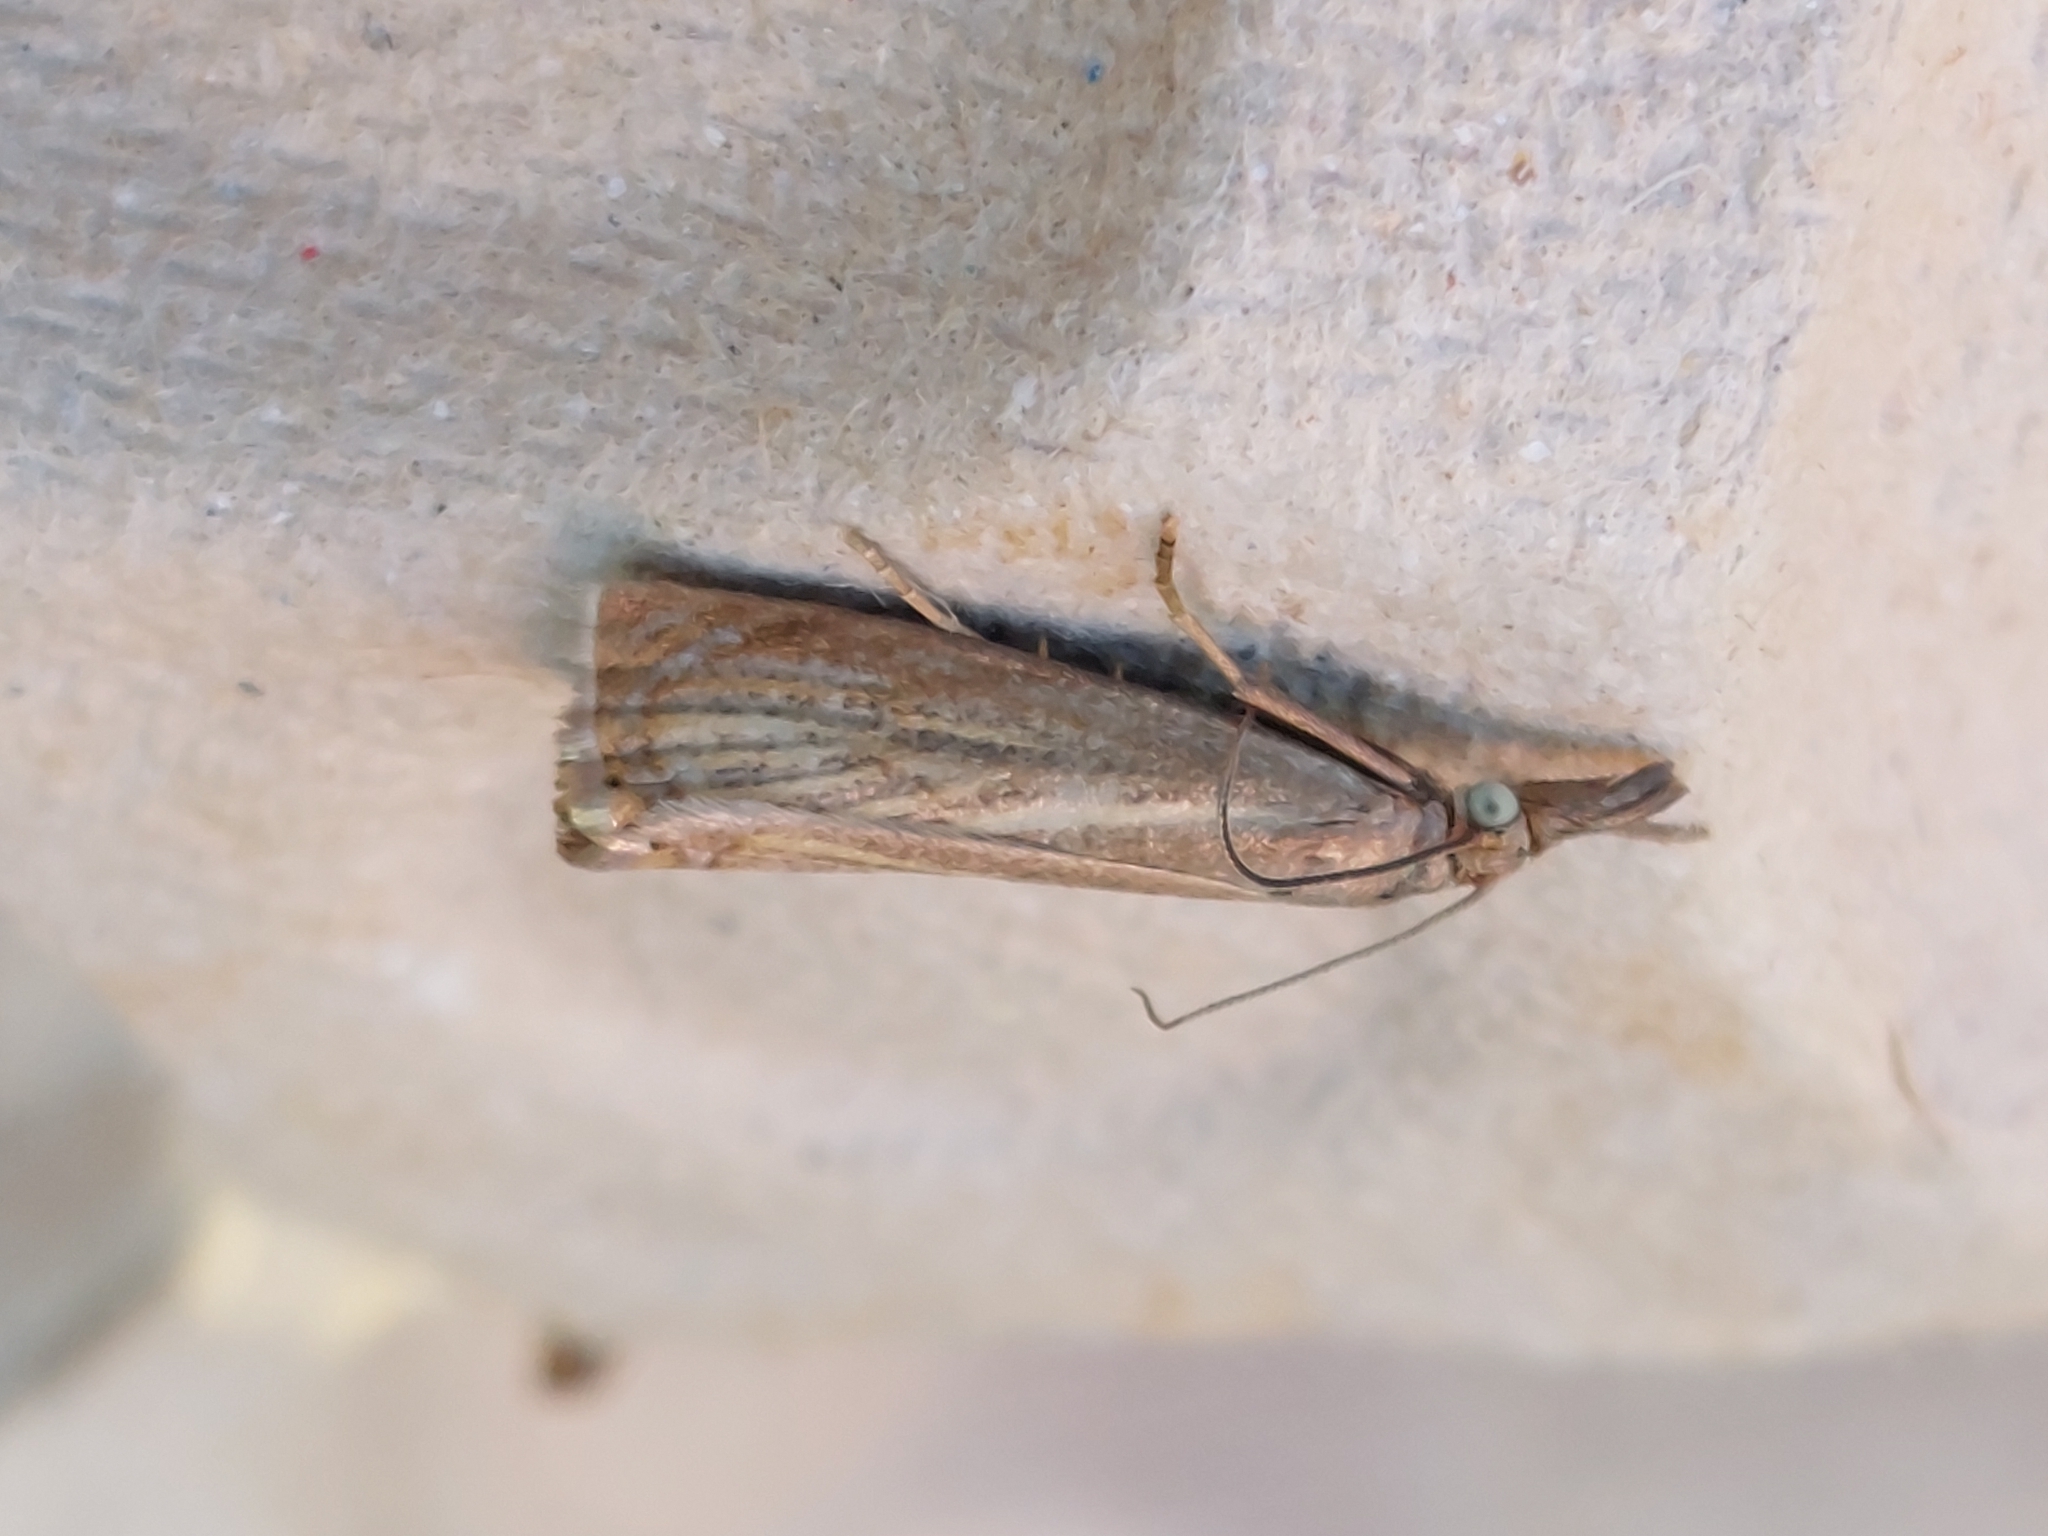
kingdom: Animalia
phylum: Arthropoda
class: Insecta
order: Lepidoptera
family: Crambidae
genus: Chrysoteuchia
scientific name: Chrysoteuchia culmella
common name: Garden grass-veneer
